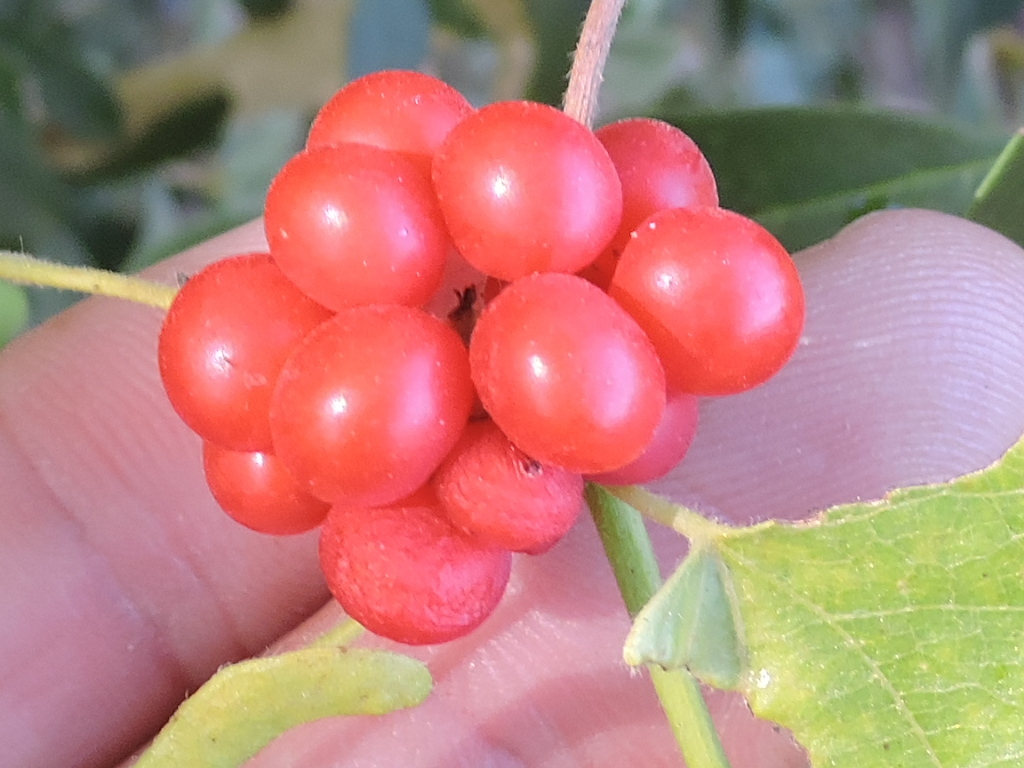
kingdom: Plantae
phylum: Tracheophyta
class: Magnoliopsida
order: Ranunculales
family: Menispermaceae
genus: Cocculus
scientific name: Cocculus carolinus
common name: Carolina moonseed
